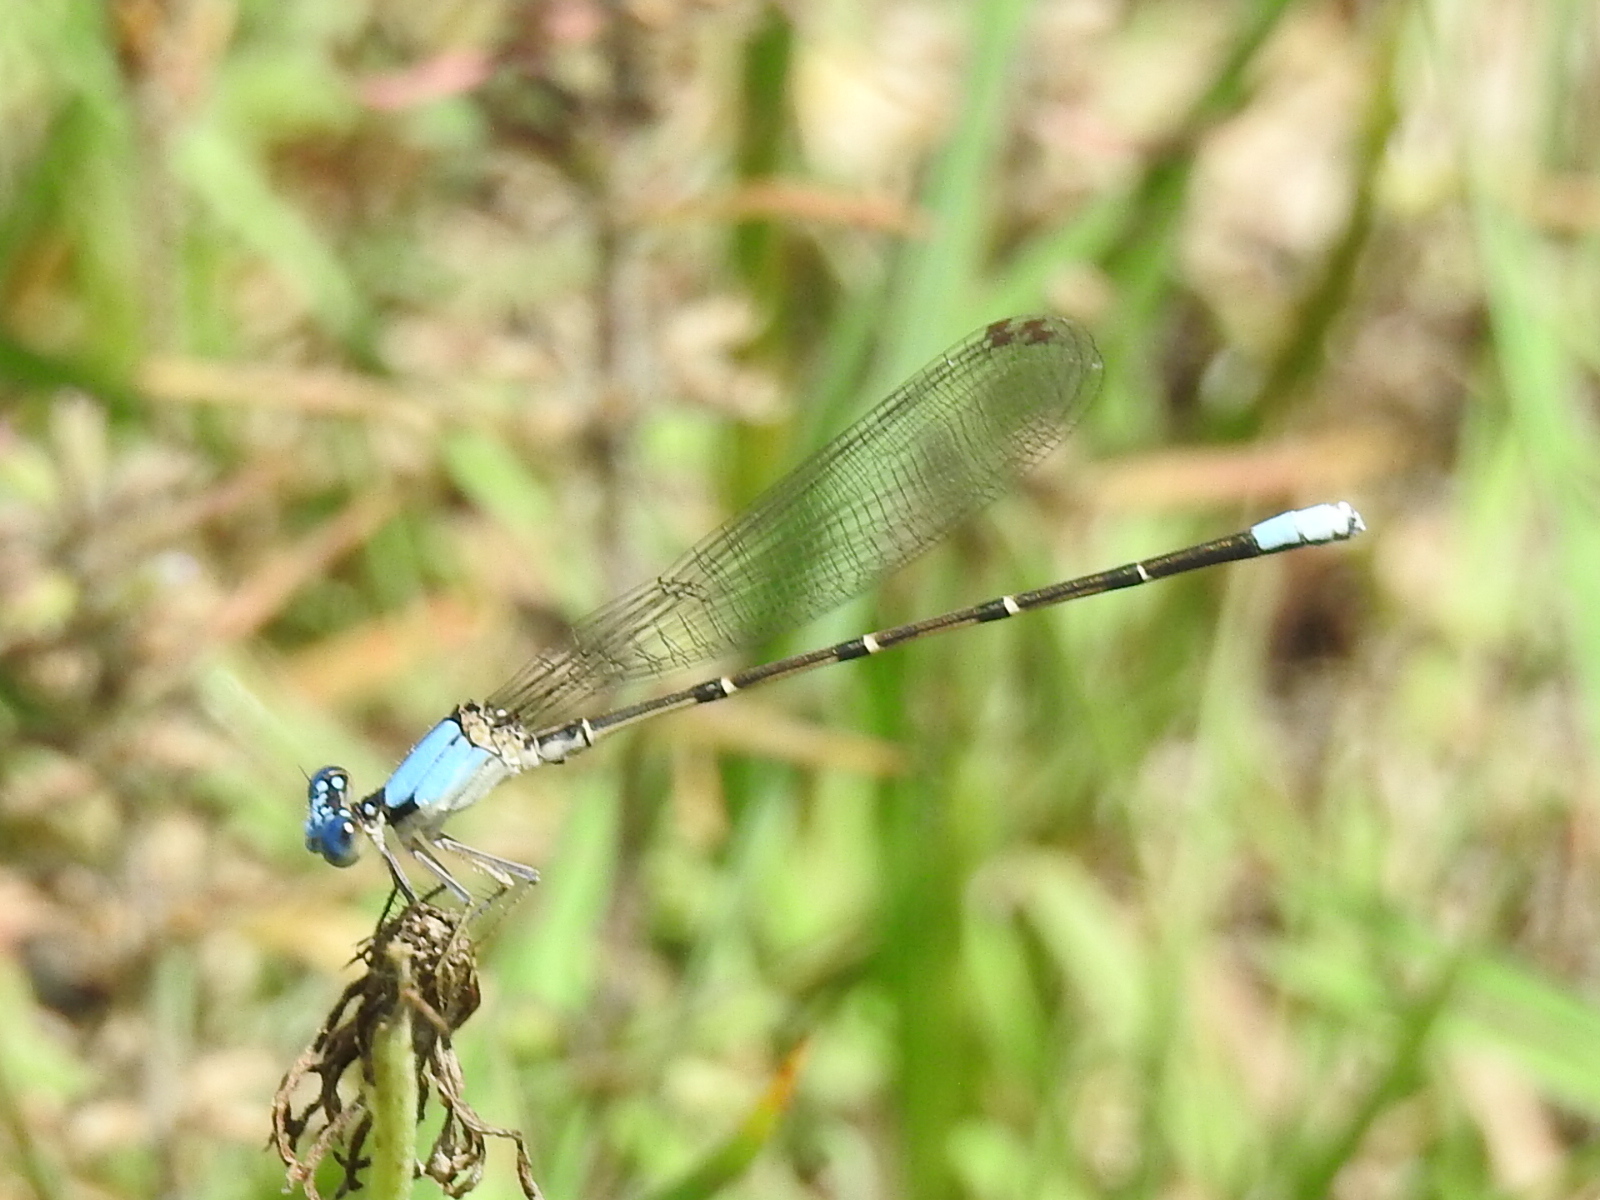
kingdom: Animalia
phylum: Arthropoda
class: Insecta
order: Odonata
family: Coenagrionidae
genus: Argia
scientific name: Argia apicalis
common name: Blue-fronted dancer
